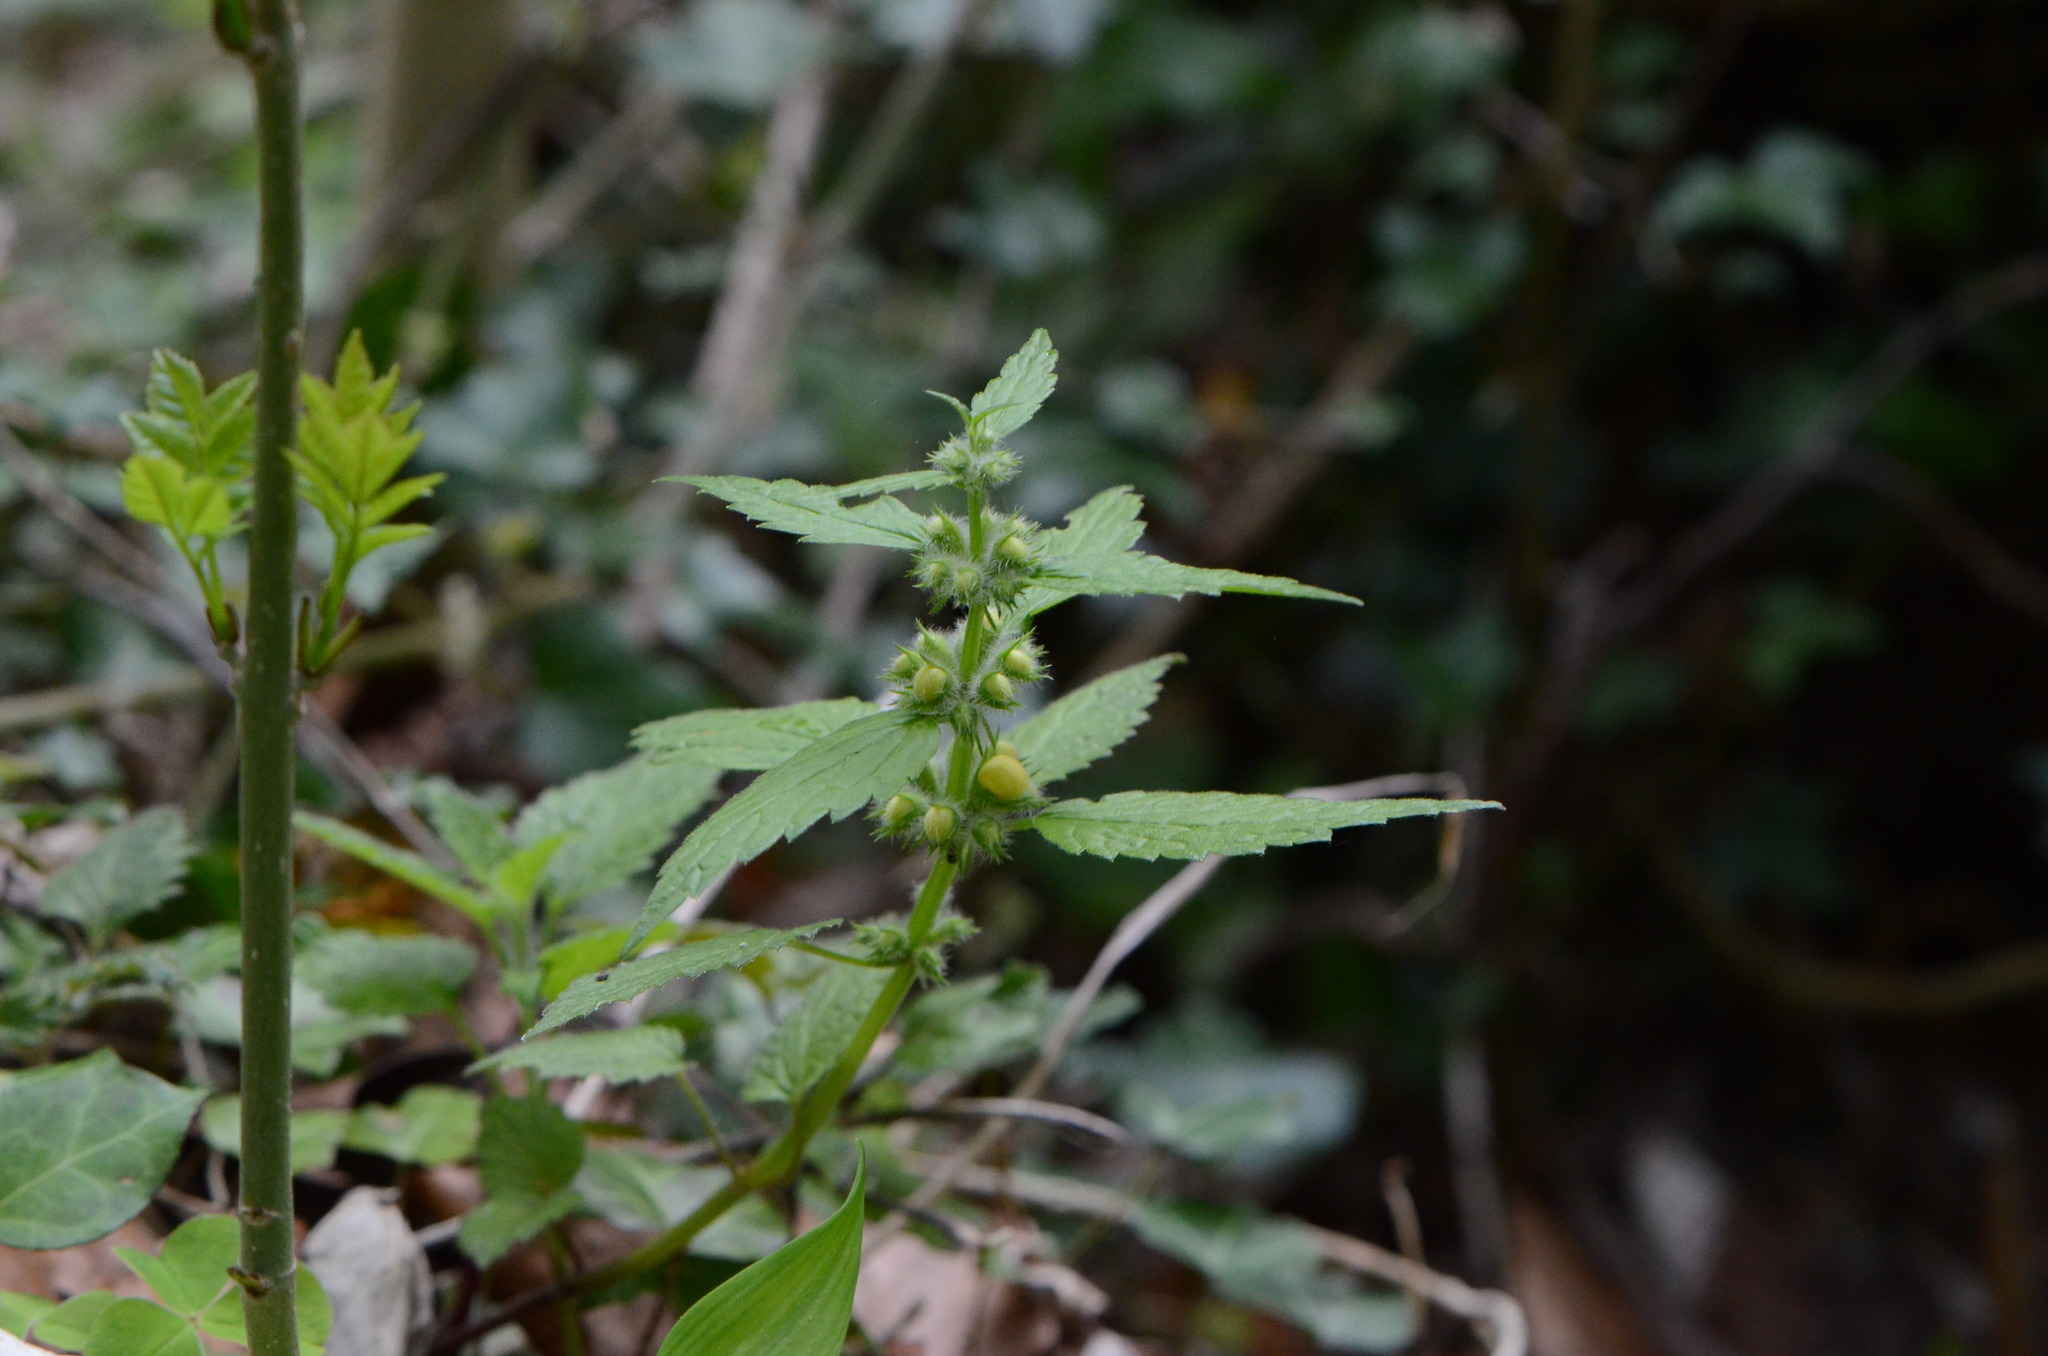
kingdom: Plantae
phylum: Tracheophyta
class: Magnoliopsida
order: Lamiales
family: Lamiaceae
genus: Lamium
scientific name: Lamium galeobdolon
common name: Yellow archangel
